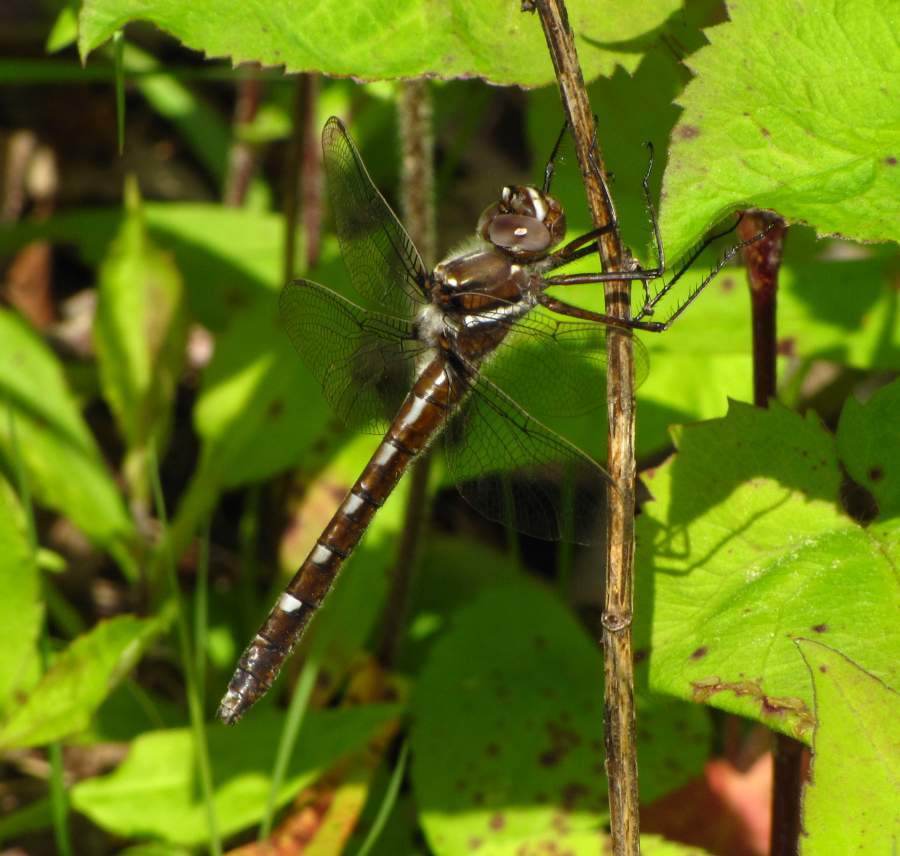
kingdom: Animalia
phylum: Arthropoda
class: Insecta
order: Odonata
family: Macromiidae
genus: Didymops
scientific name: Didymops transversa
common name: Stream cruiser
